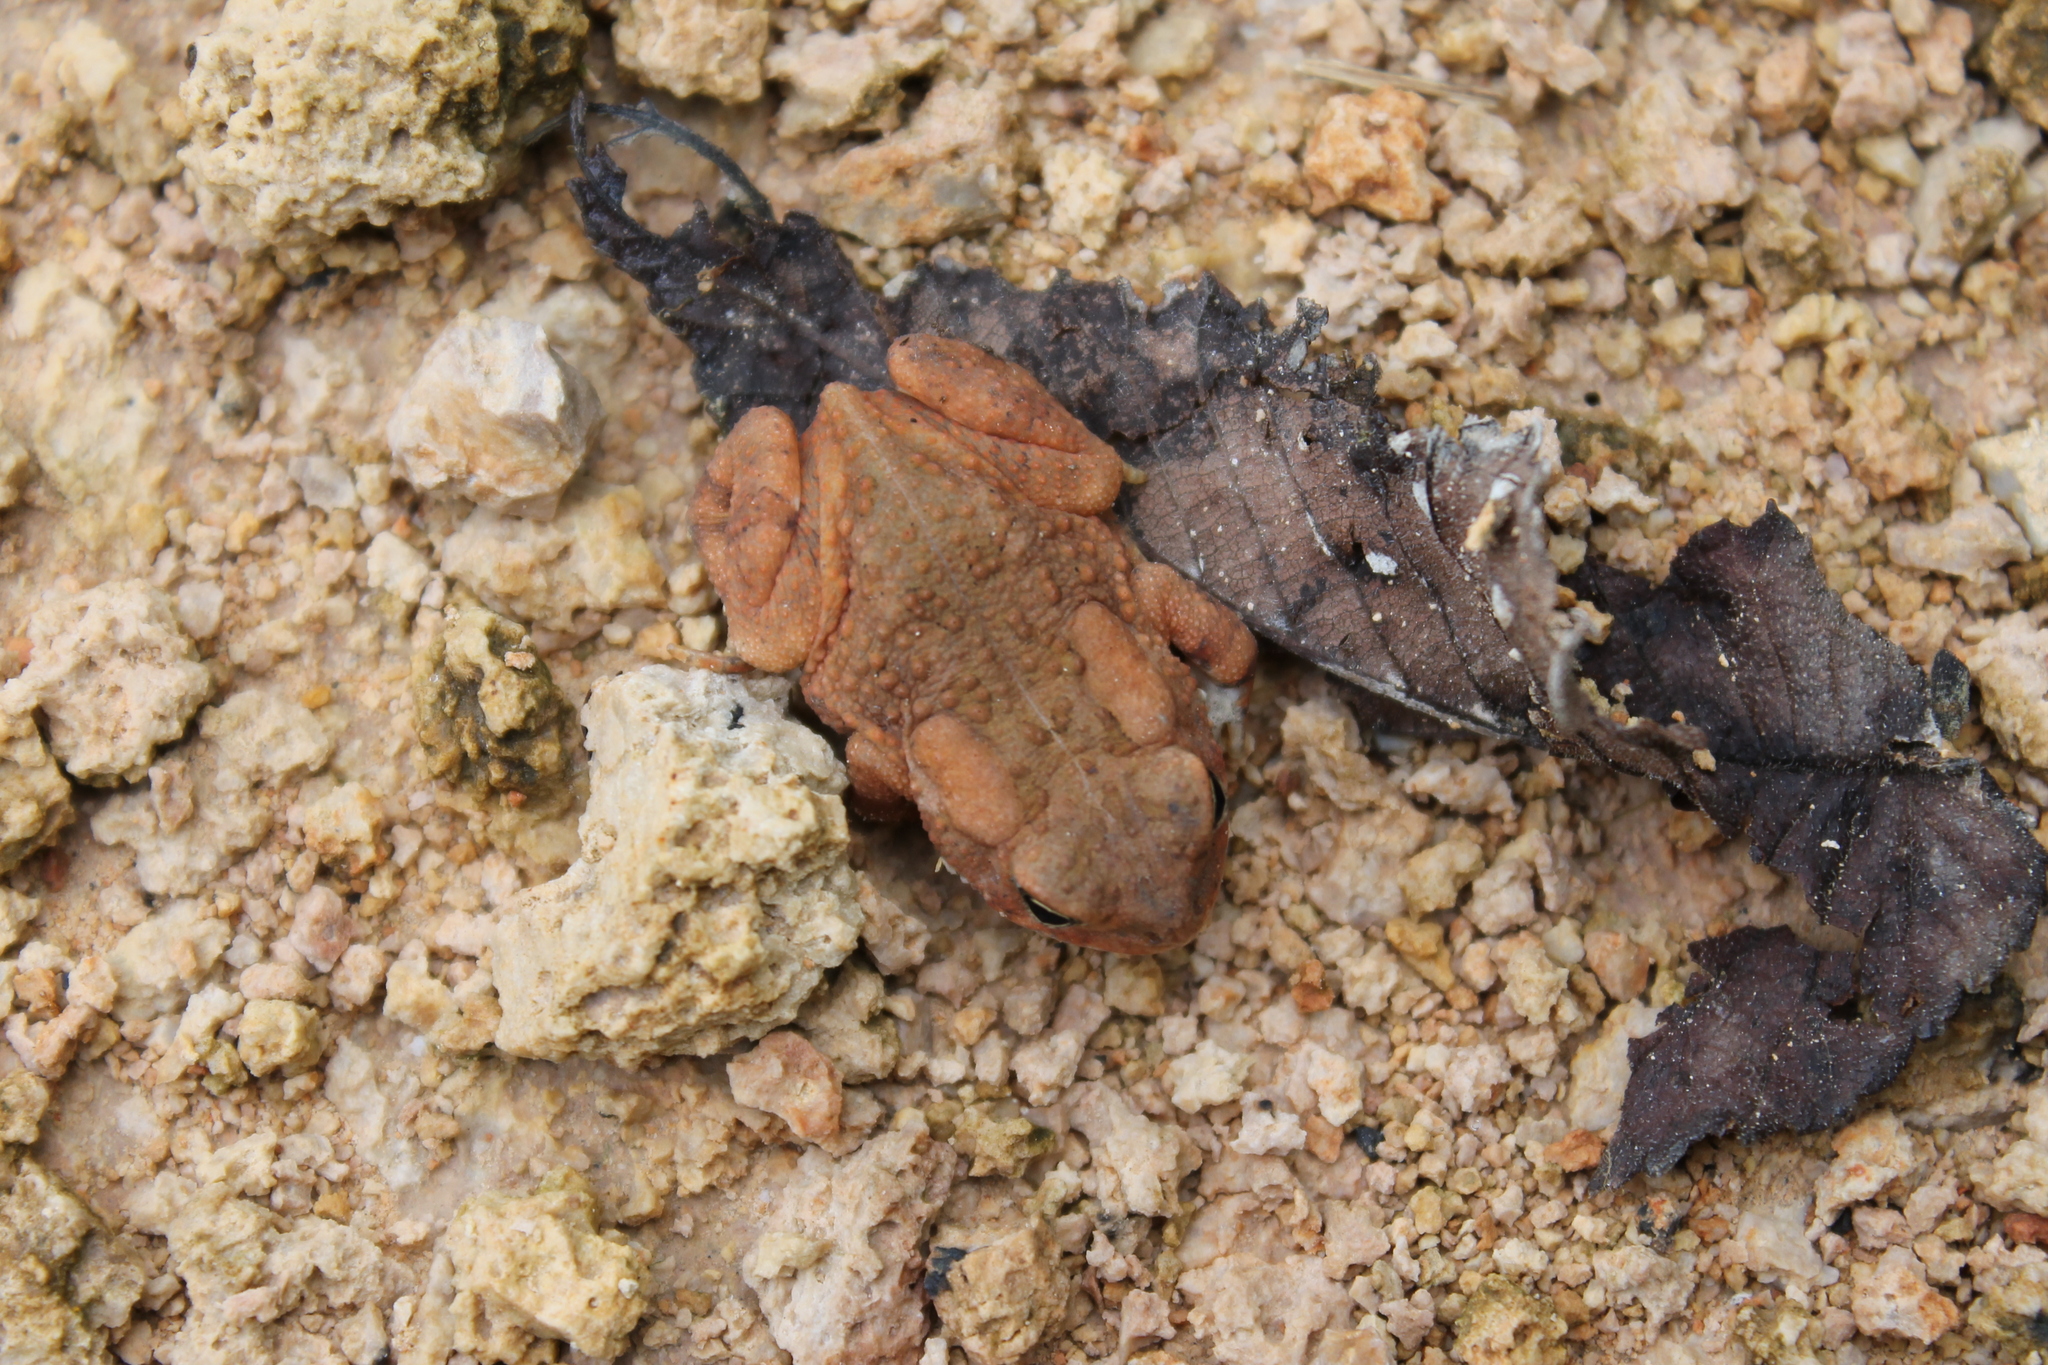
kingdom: Animalia
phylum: Chordata
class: Amphibia
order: Anura
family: Bufonidae
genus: Anaxyrus
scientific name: Anaxyrus fowleri
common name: Fowler's toad
